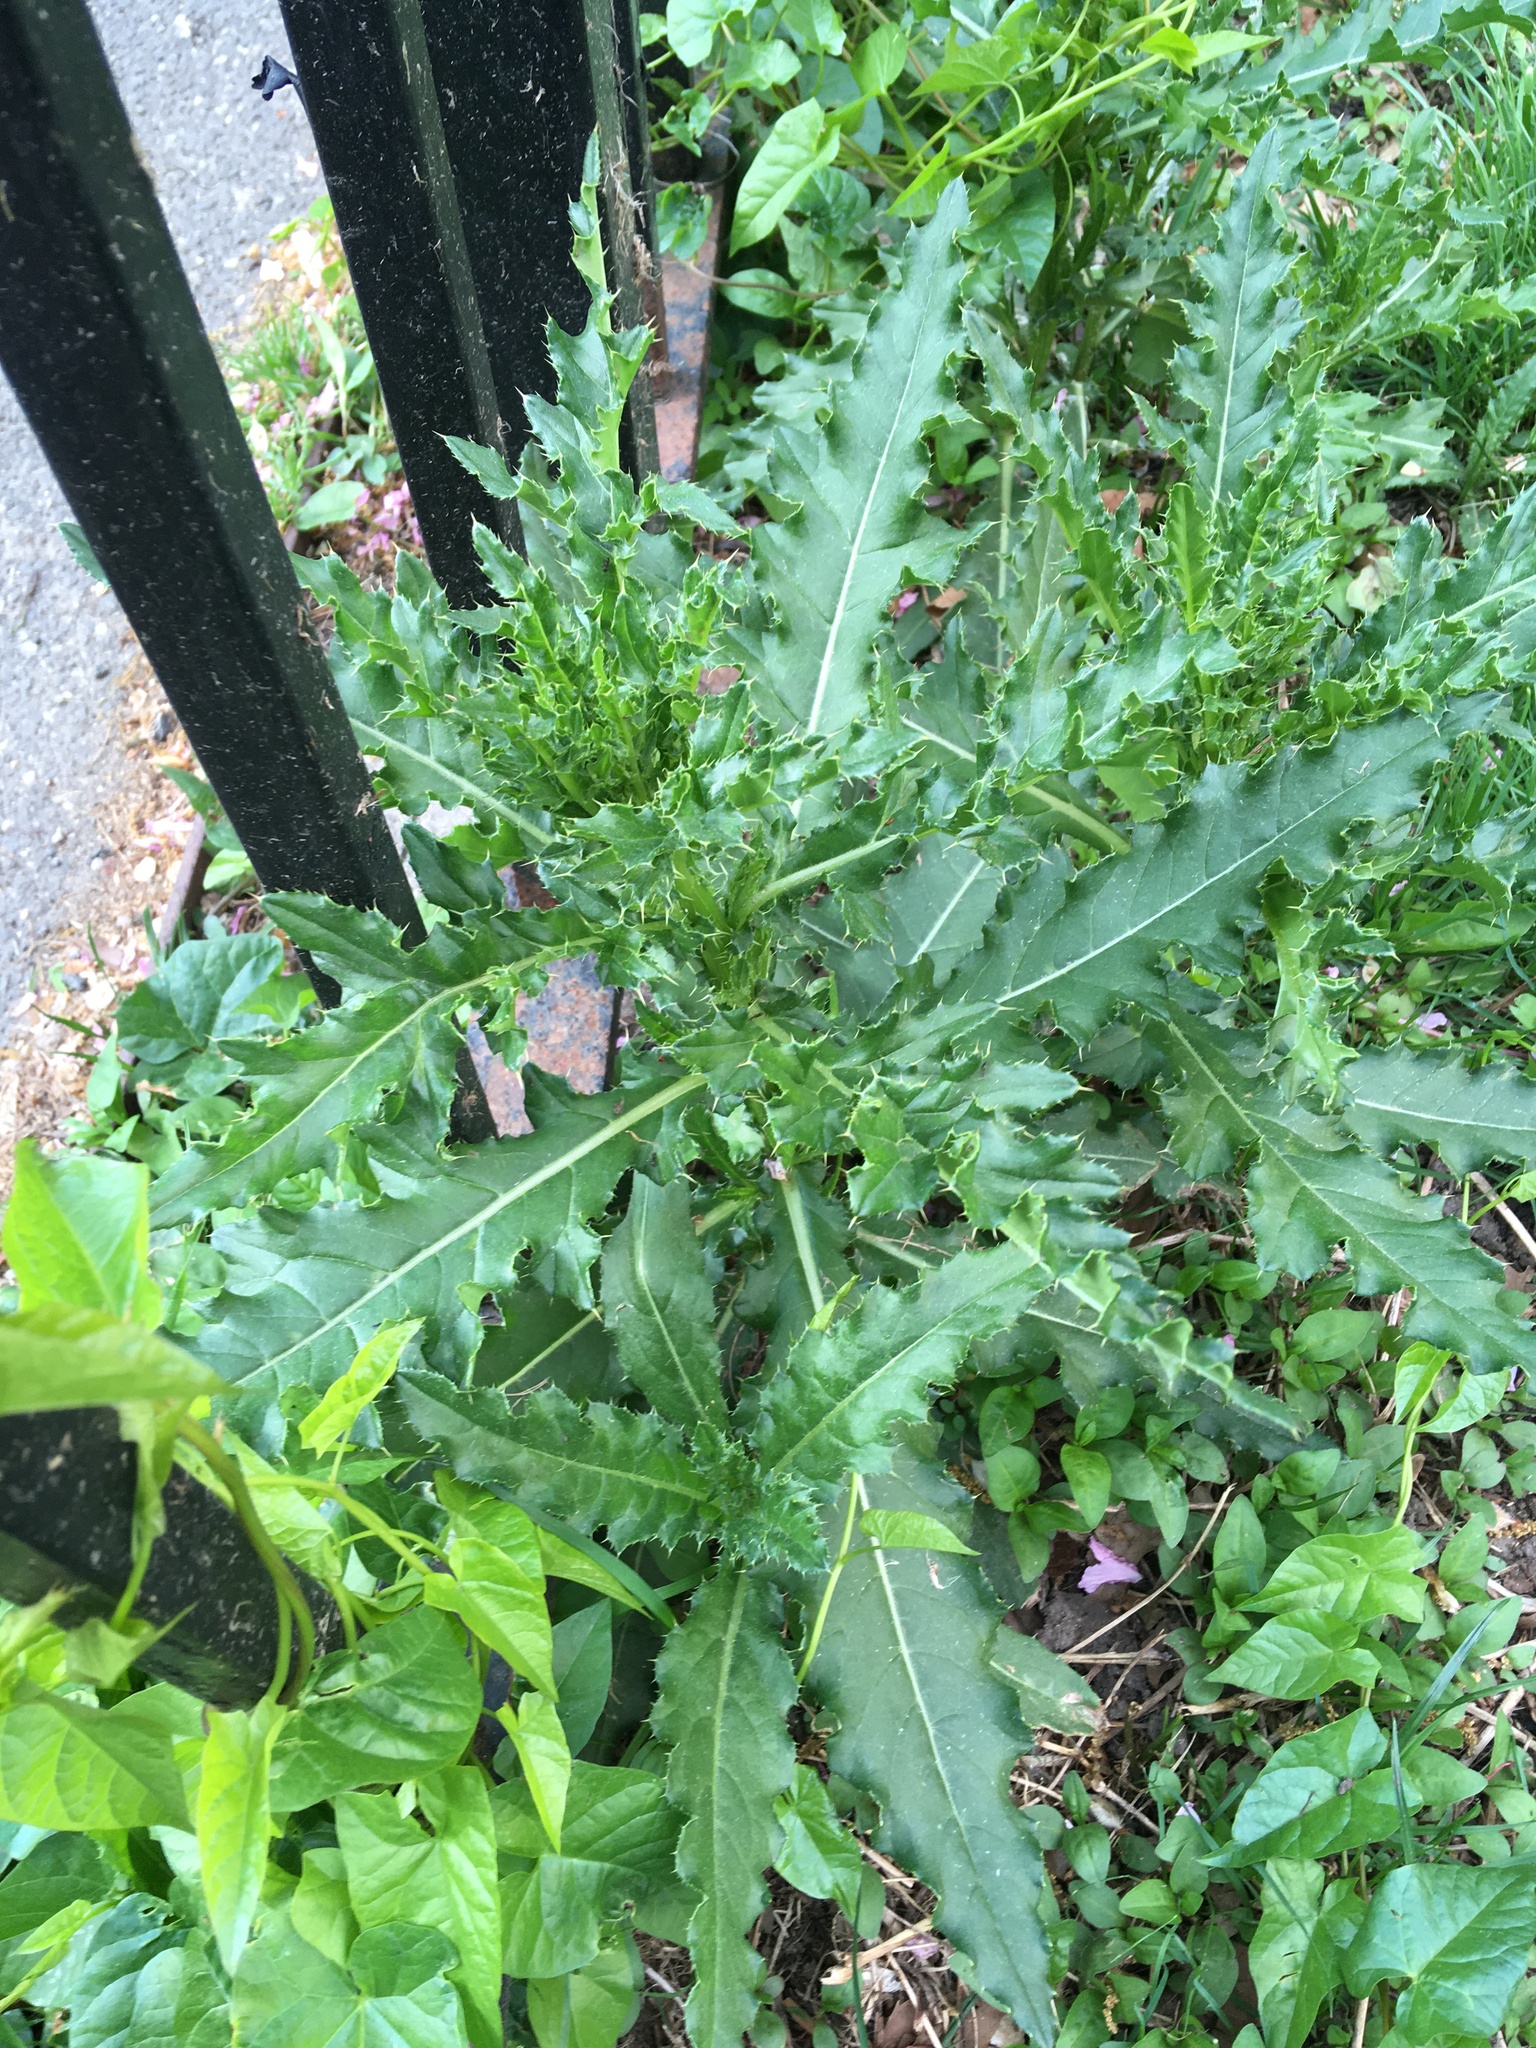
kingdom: Plantae
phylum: Tracheophyta
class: Magnoliopsida
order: Asterales
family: Asteraceae
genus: Cirsium
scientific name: Cirsium arvense
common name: Creeping thistle
